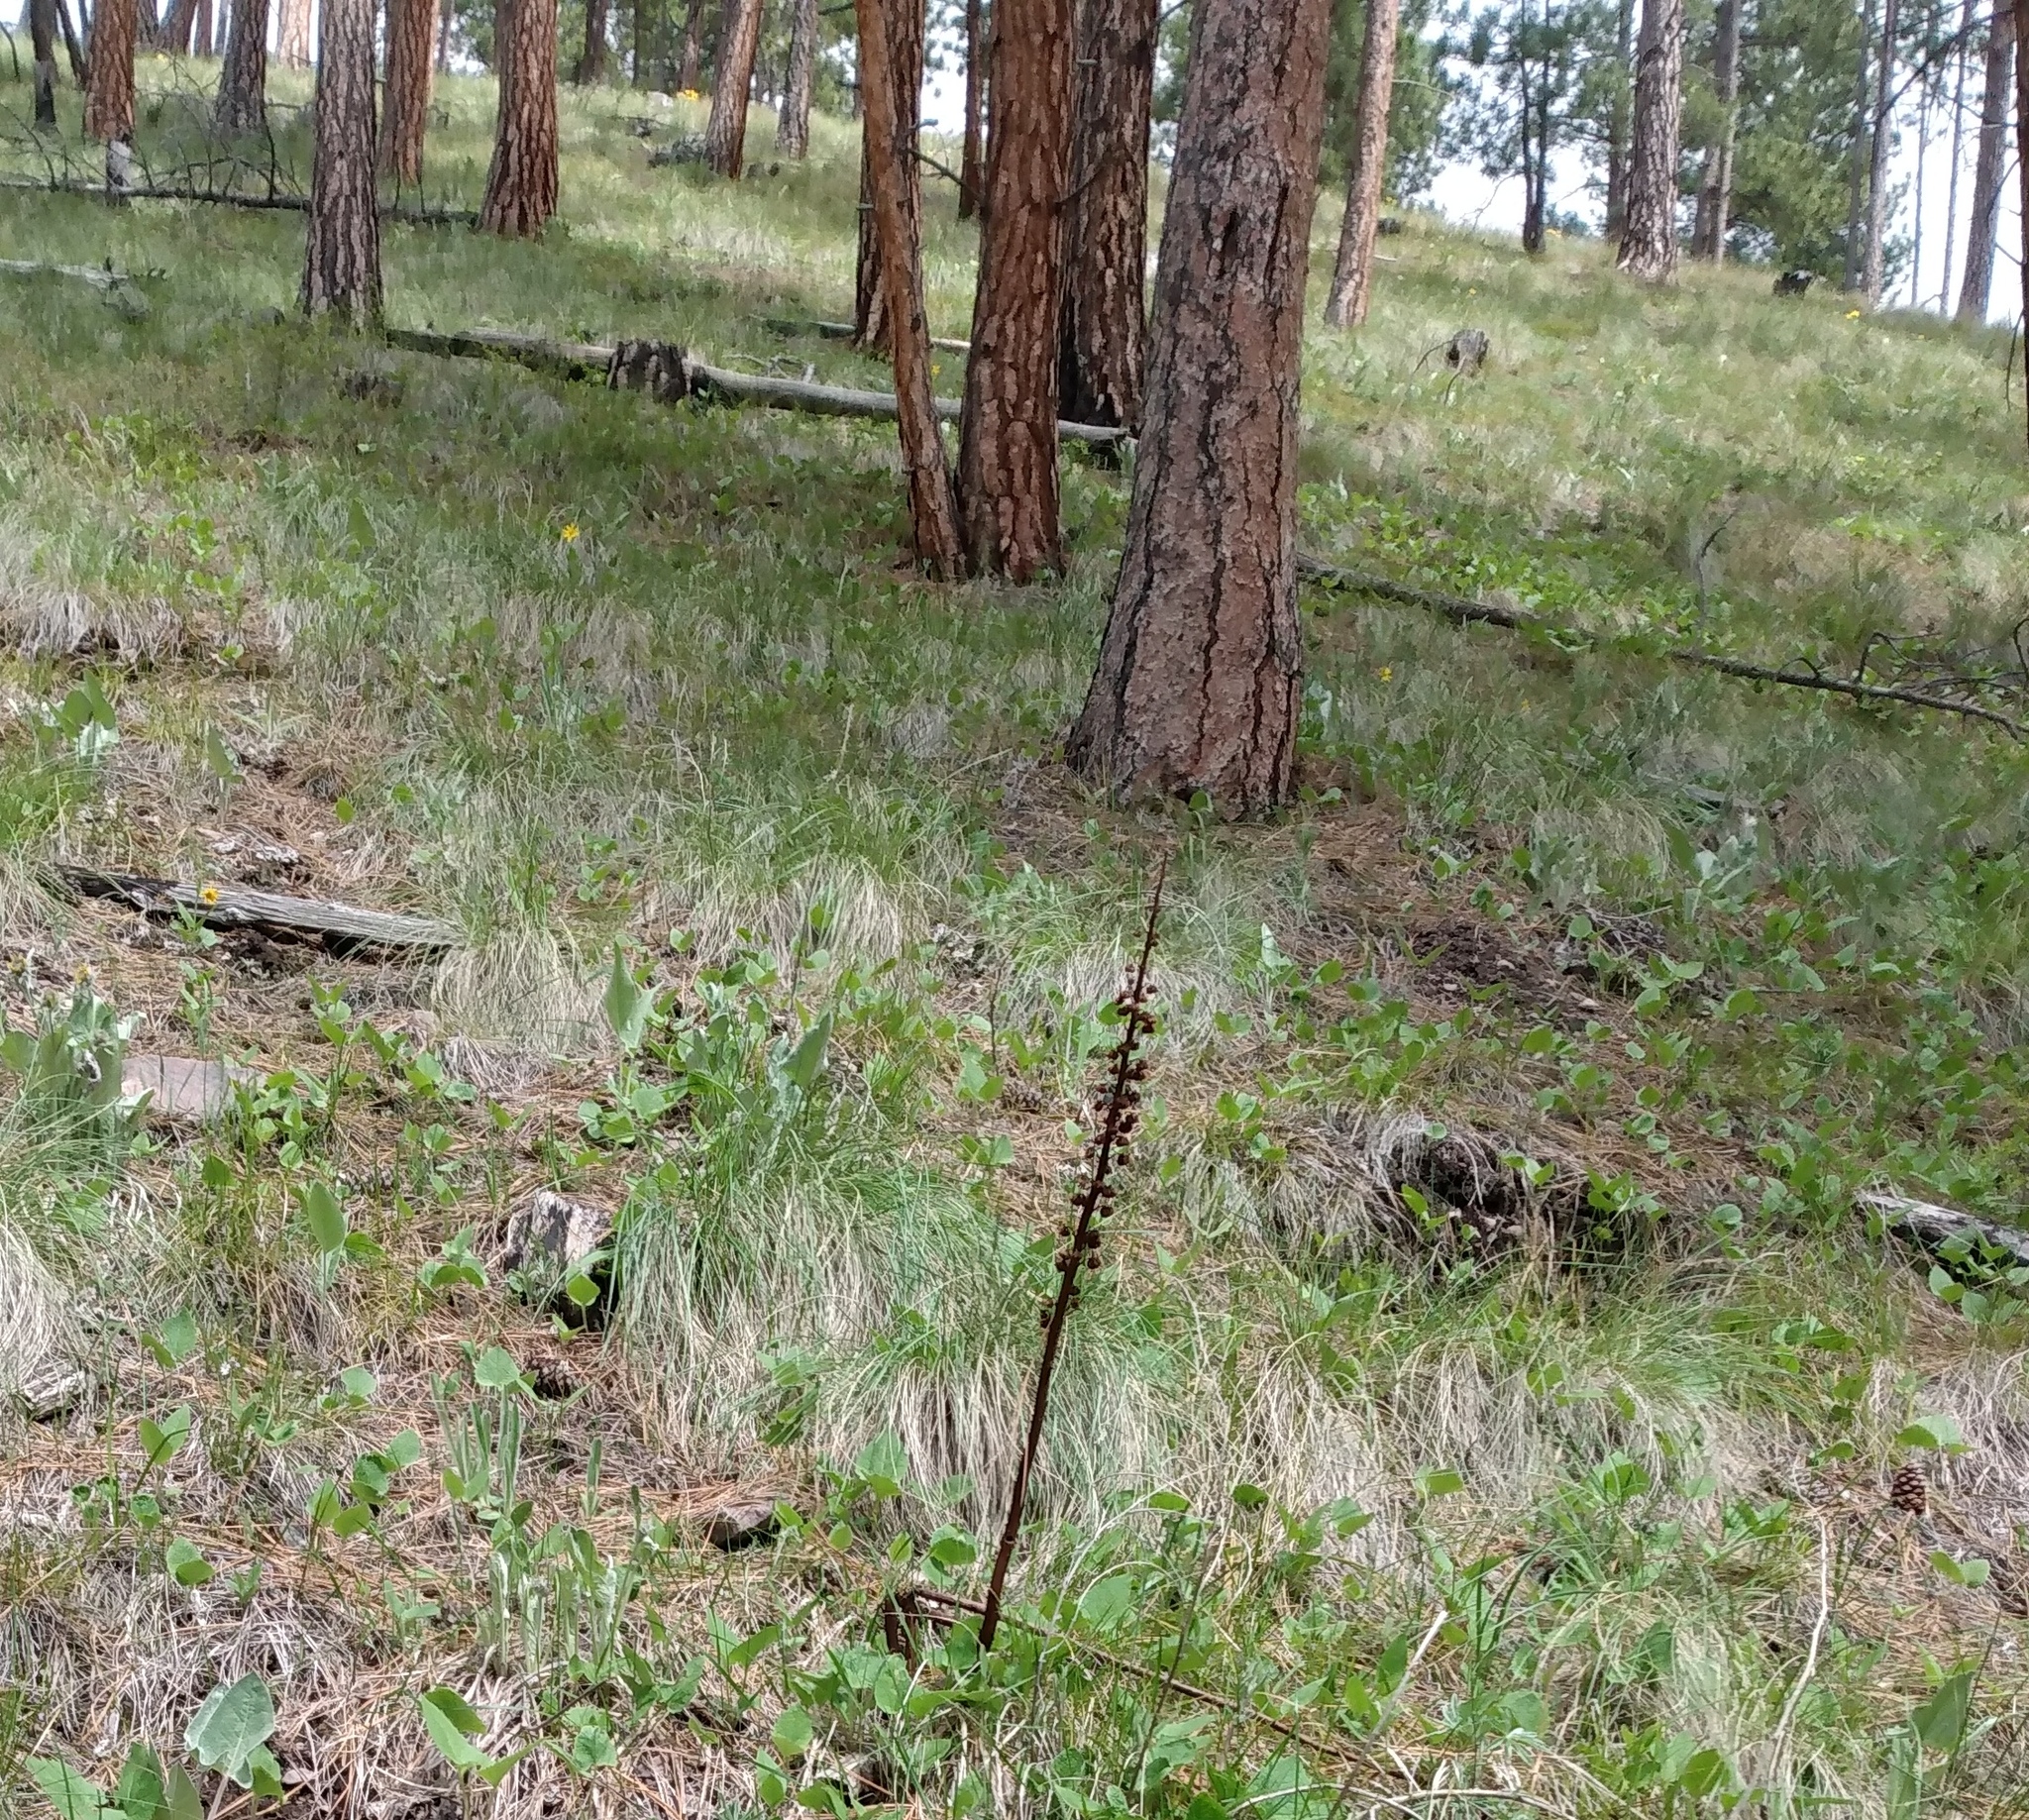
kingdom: Plantae
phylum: Tracheophyta
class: Magnoliopsida
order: Ericales
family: Ericaceae
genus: Pterospora
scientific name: Pterospora andromedea
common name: Giant bird's-nest
